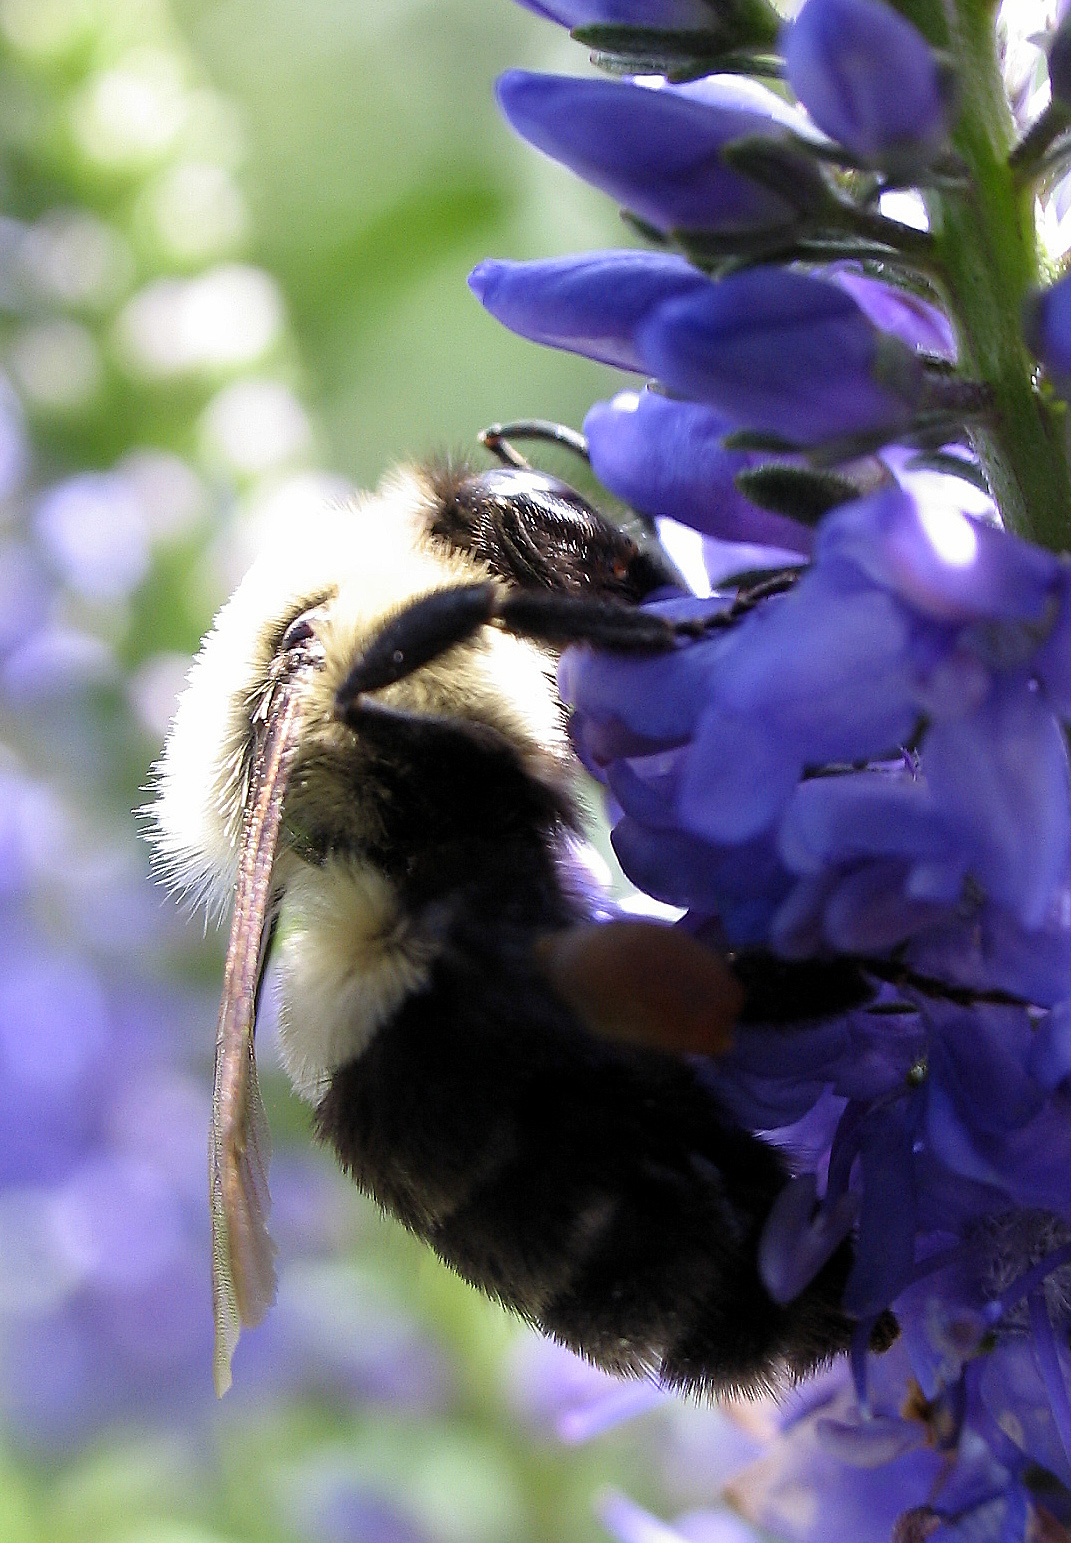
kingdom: Animalia
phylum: Arthropoda
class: Insecta
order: Hymenoptera
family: Apidae
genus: Bombus
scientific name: Bombus impatiens
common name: Common eastern bumble bee
